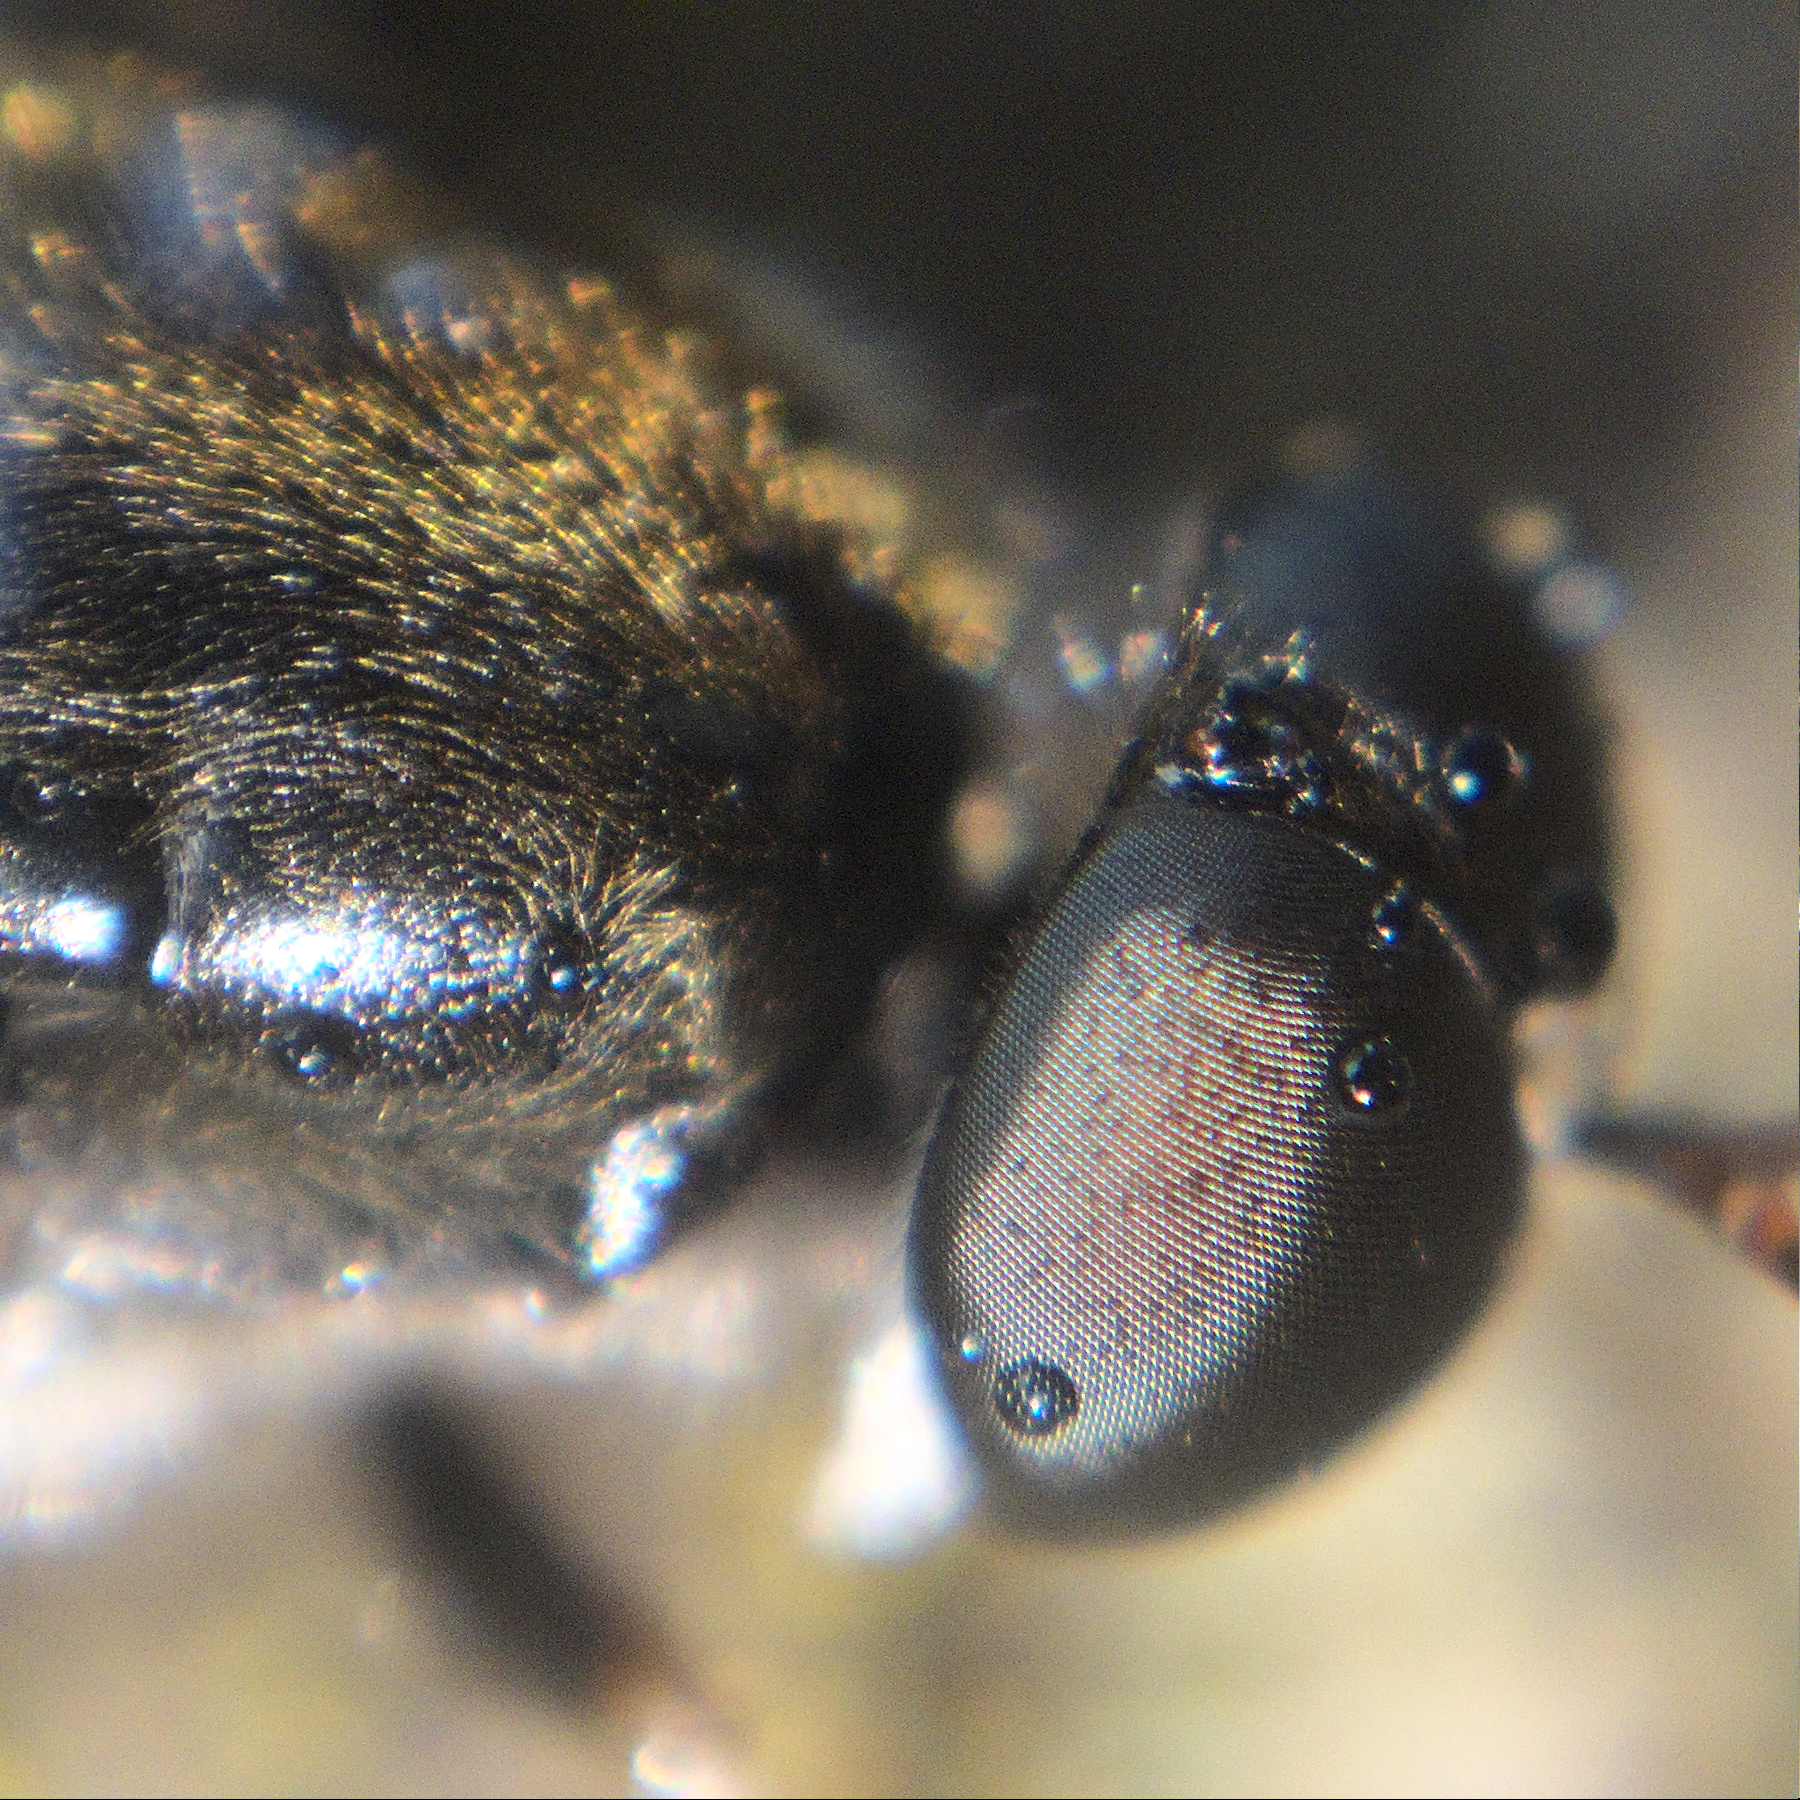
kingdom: Animalia
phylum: Arthropoda
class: Insecta
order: Diptera
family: Stratiomyidae
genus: Exaireta
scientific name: Exaireta spinigera
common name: Blue soldier fly
